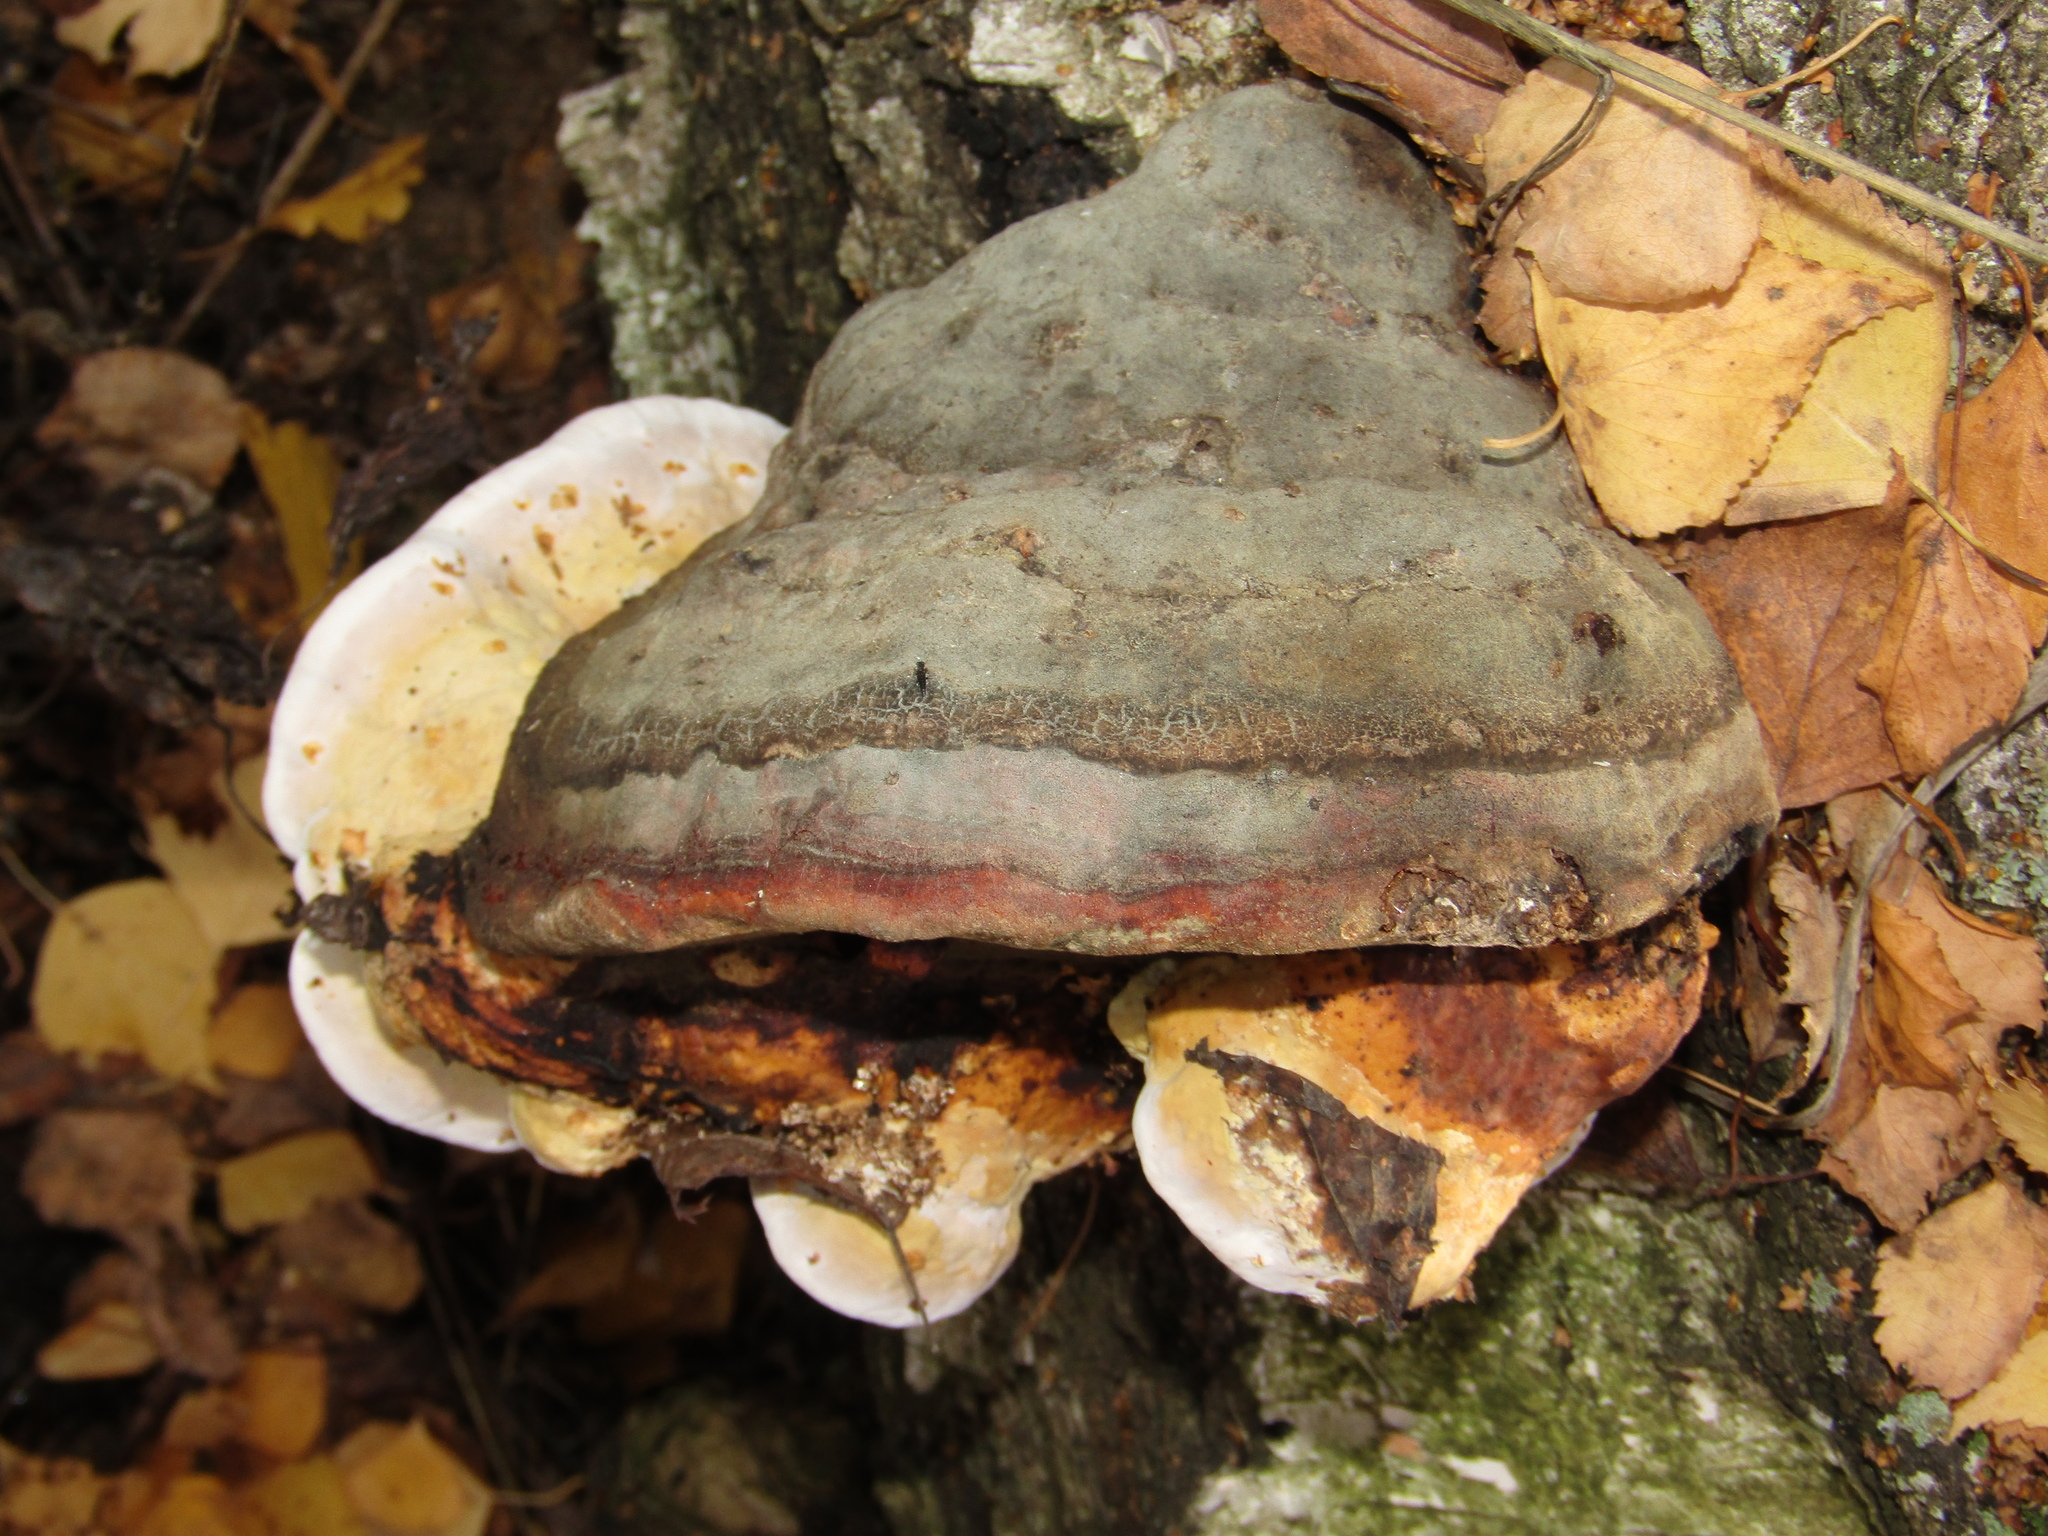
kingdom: Fungi
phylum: Basidiomycota
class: Agaricomycetes
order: Polyporales
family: Fomitopsidaceae
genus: Fomitopsis
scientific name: Fomitopsis pinicola
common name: Red-belted bracket
